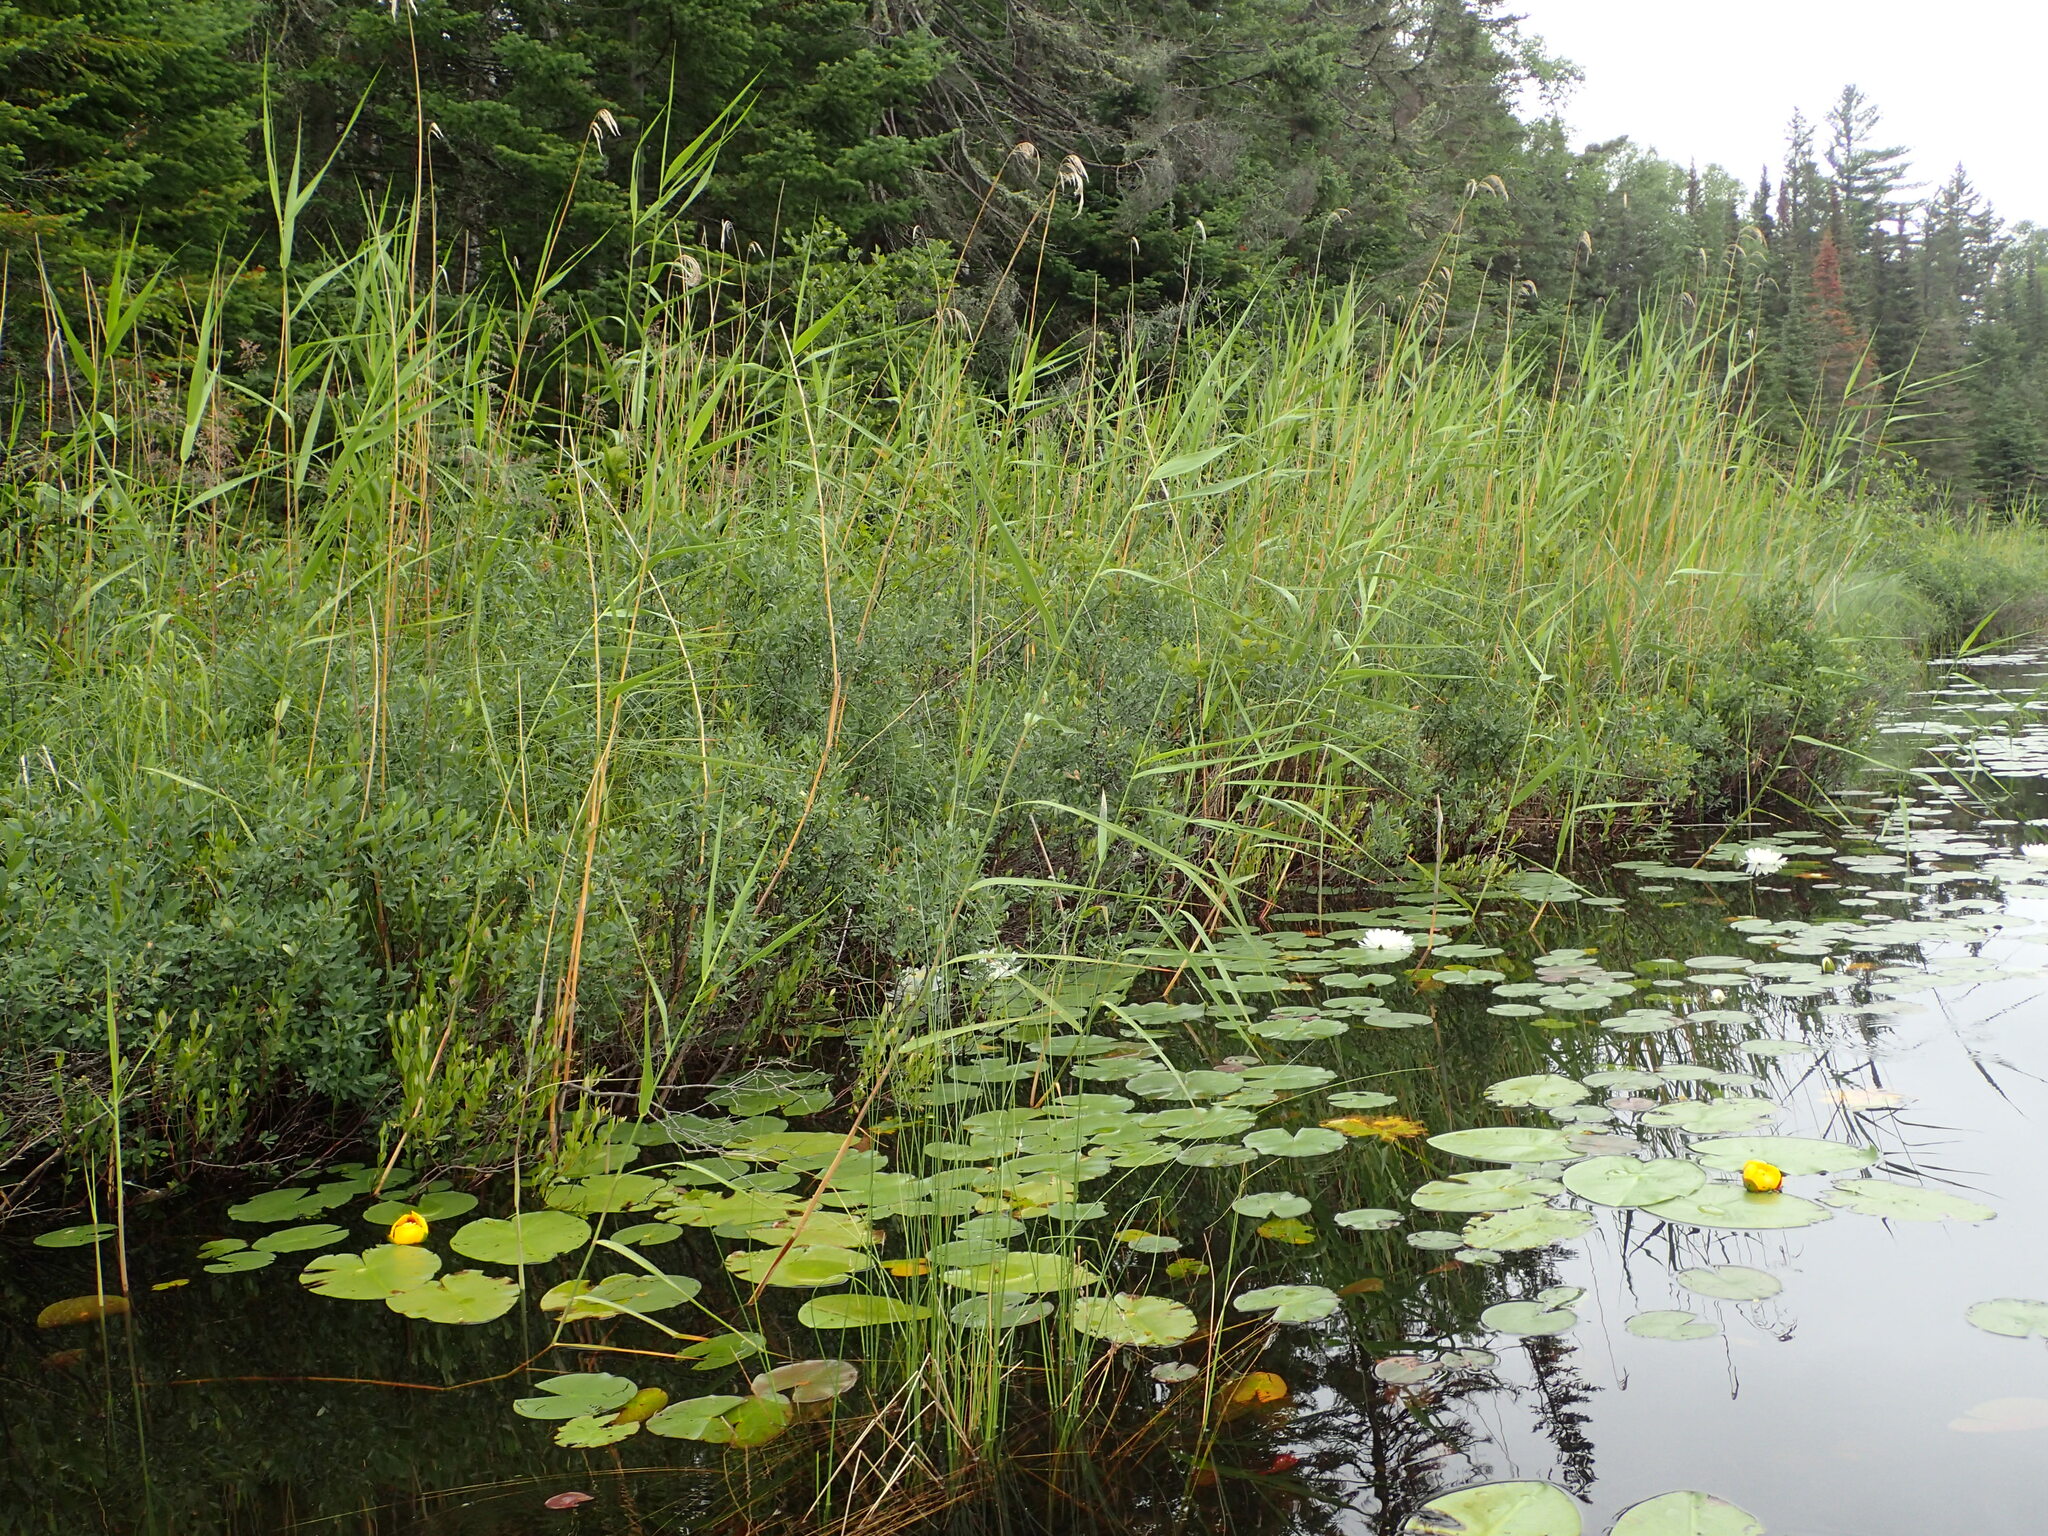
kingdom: Plantae
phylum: Tracheophyta
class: Liliopsida
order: Poales
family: Poaceae
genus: Phragmites
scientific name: Phragmites australis
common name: Common reed
